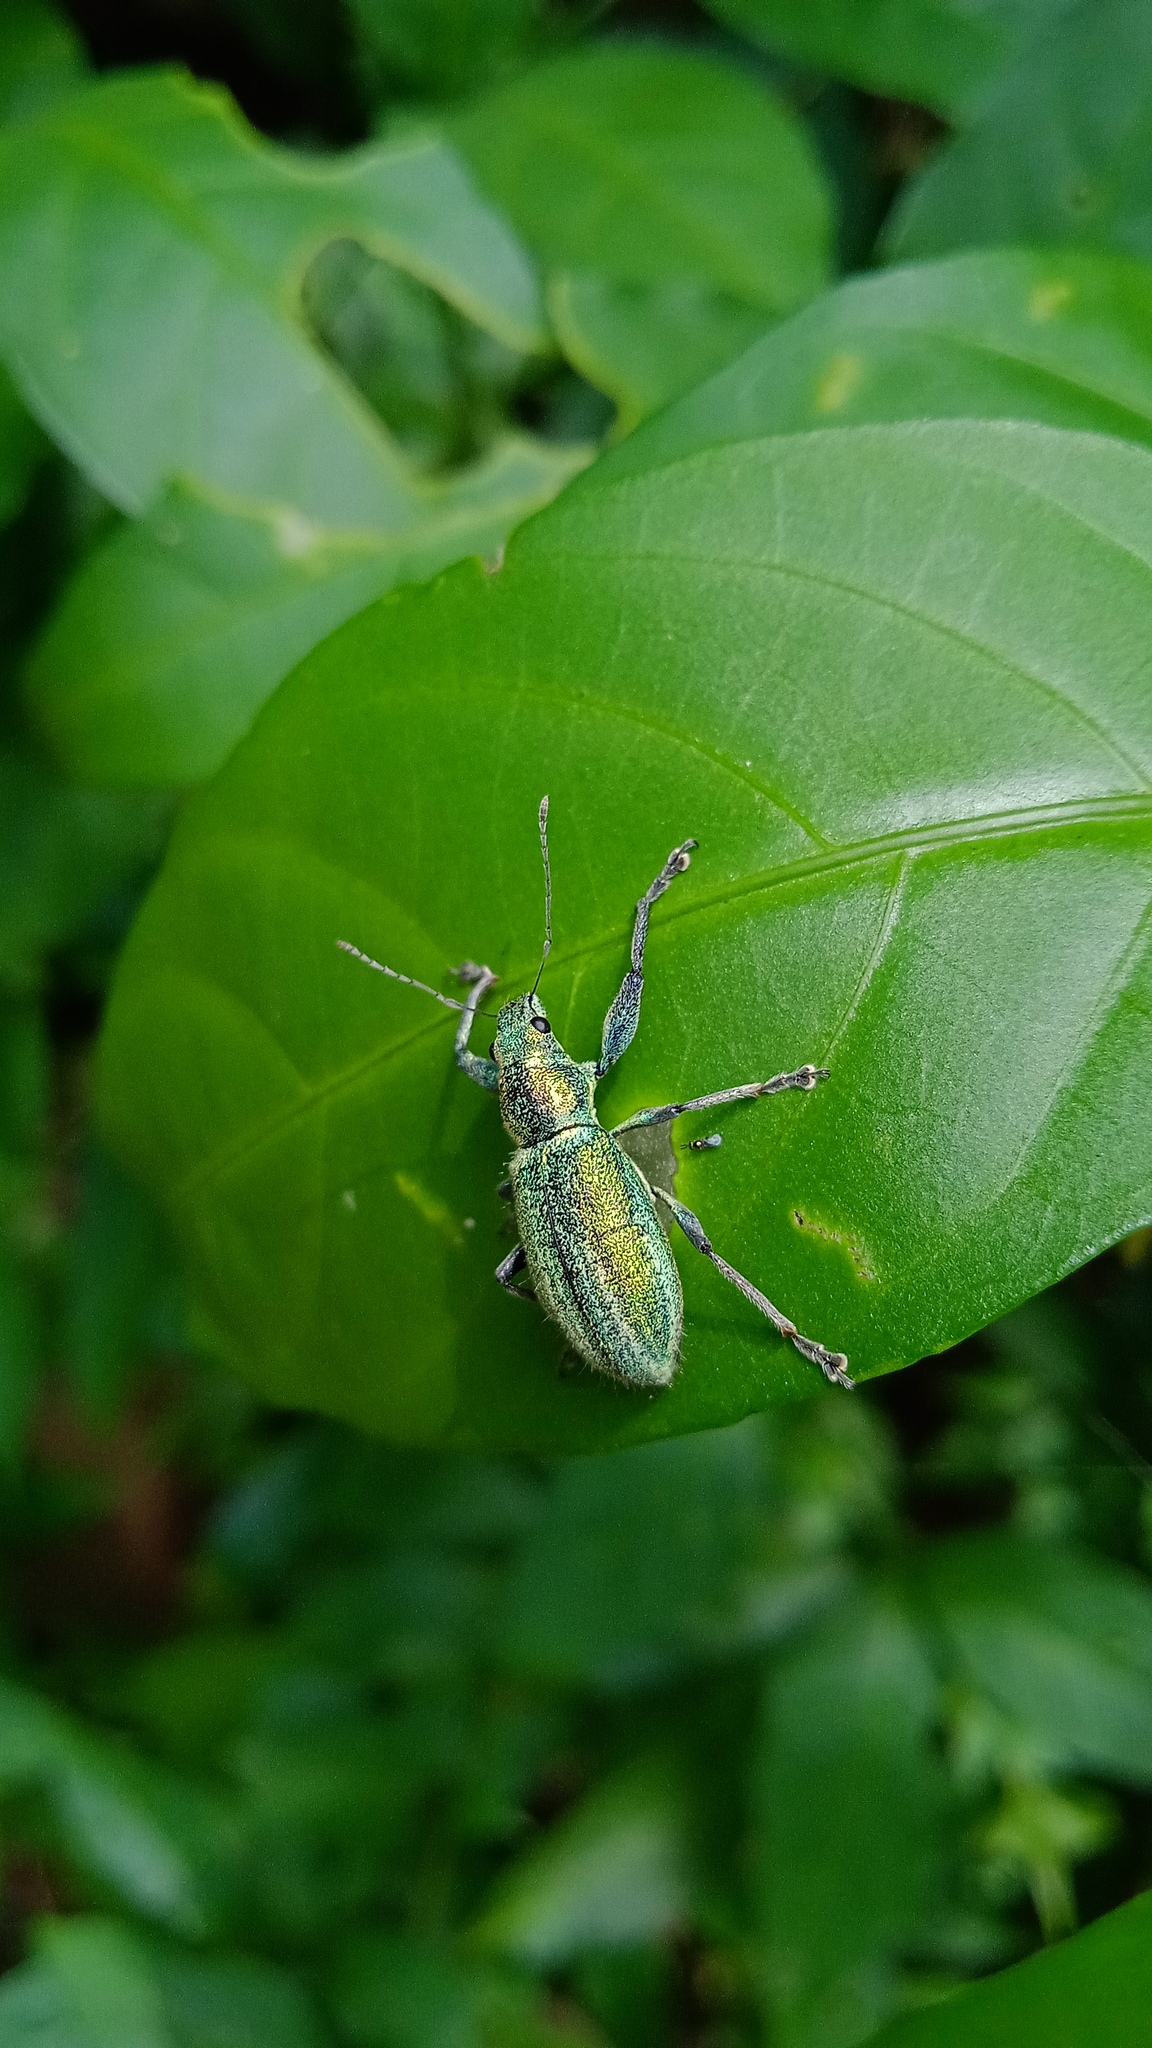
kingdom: Animalia
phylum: Arthropoda
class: Insecta
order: Coleoptera
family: Curculionidae
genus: Naupactus
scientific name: Naupactus auricinctus
